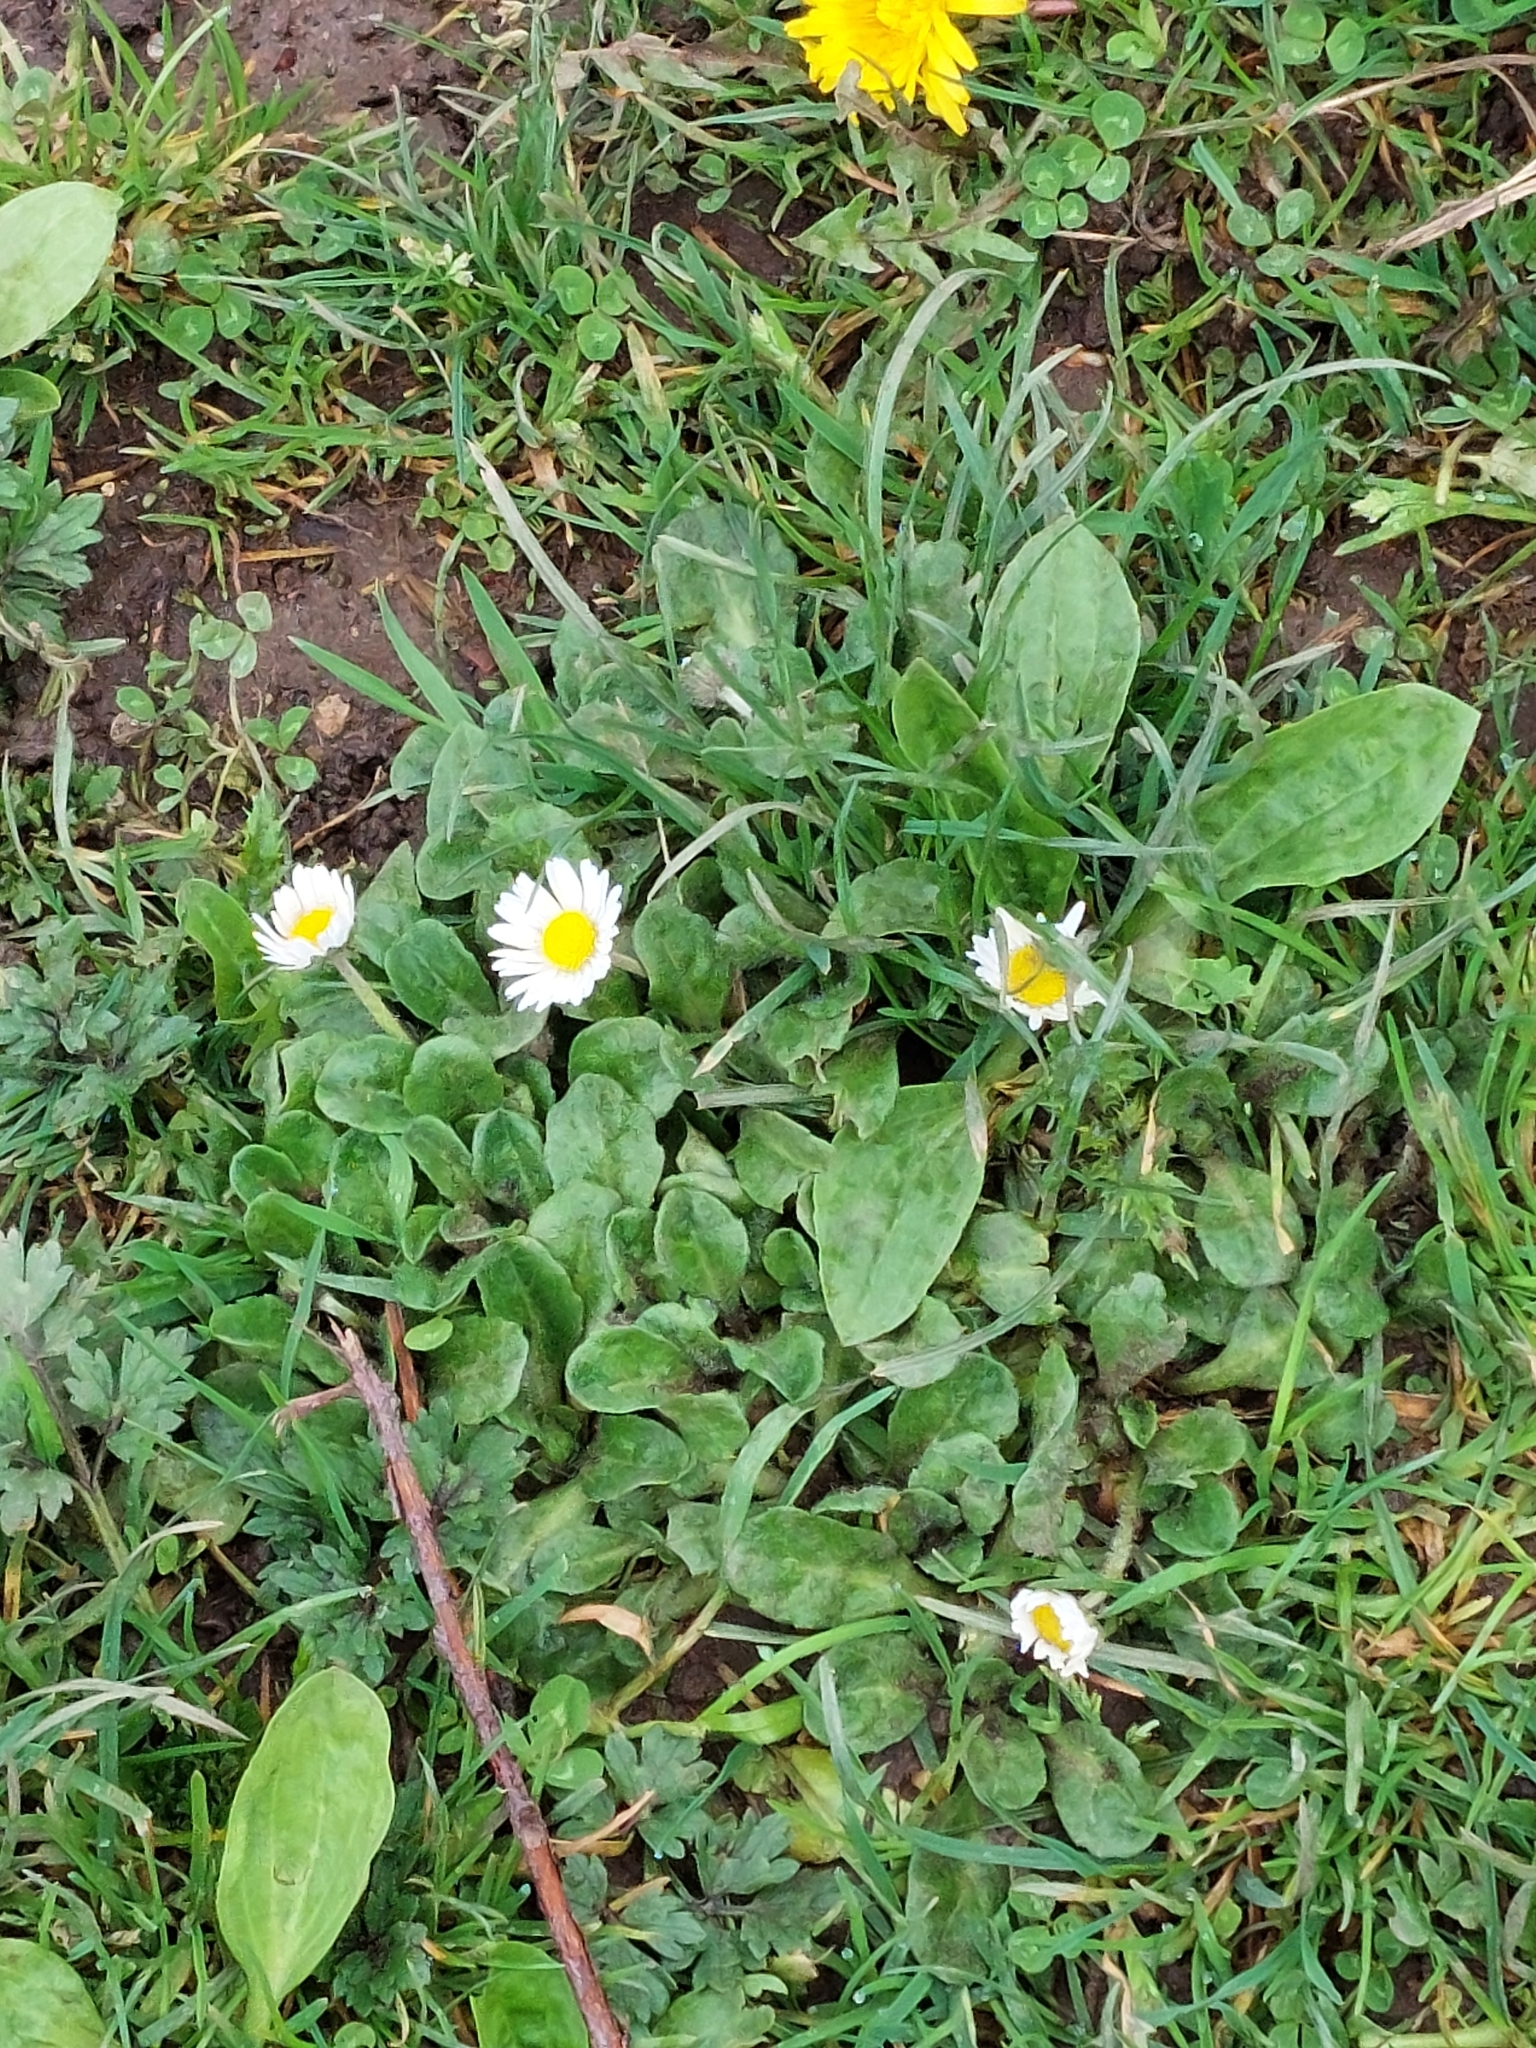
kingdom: Plantae
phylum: Tracheophyta
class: Magnoliopsida
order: Asterales
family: Asteraceae
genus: Bellis
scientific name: Bellis perennis
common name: Lawndaisy
